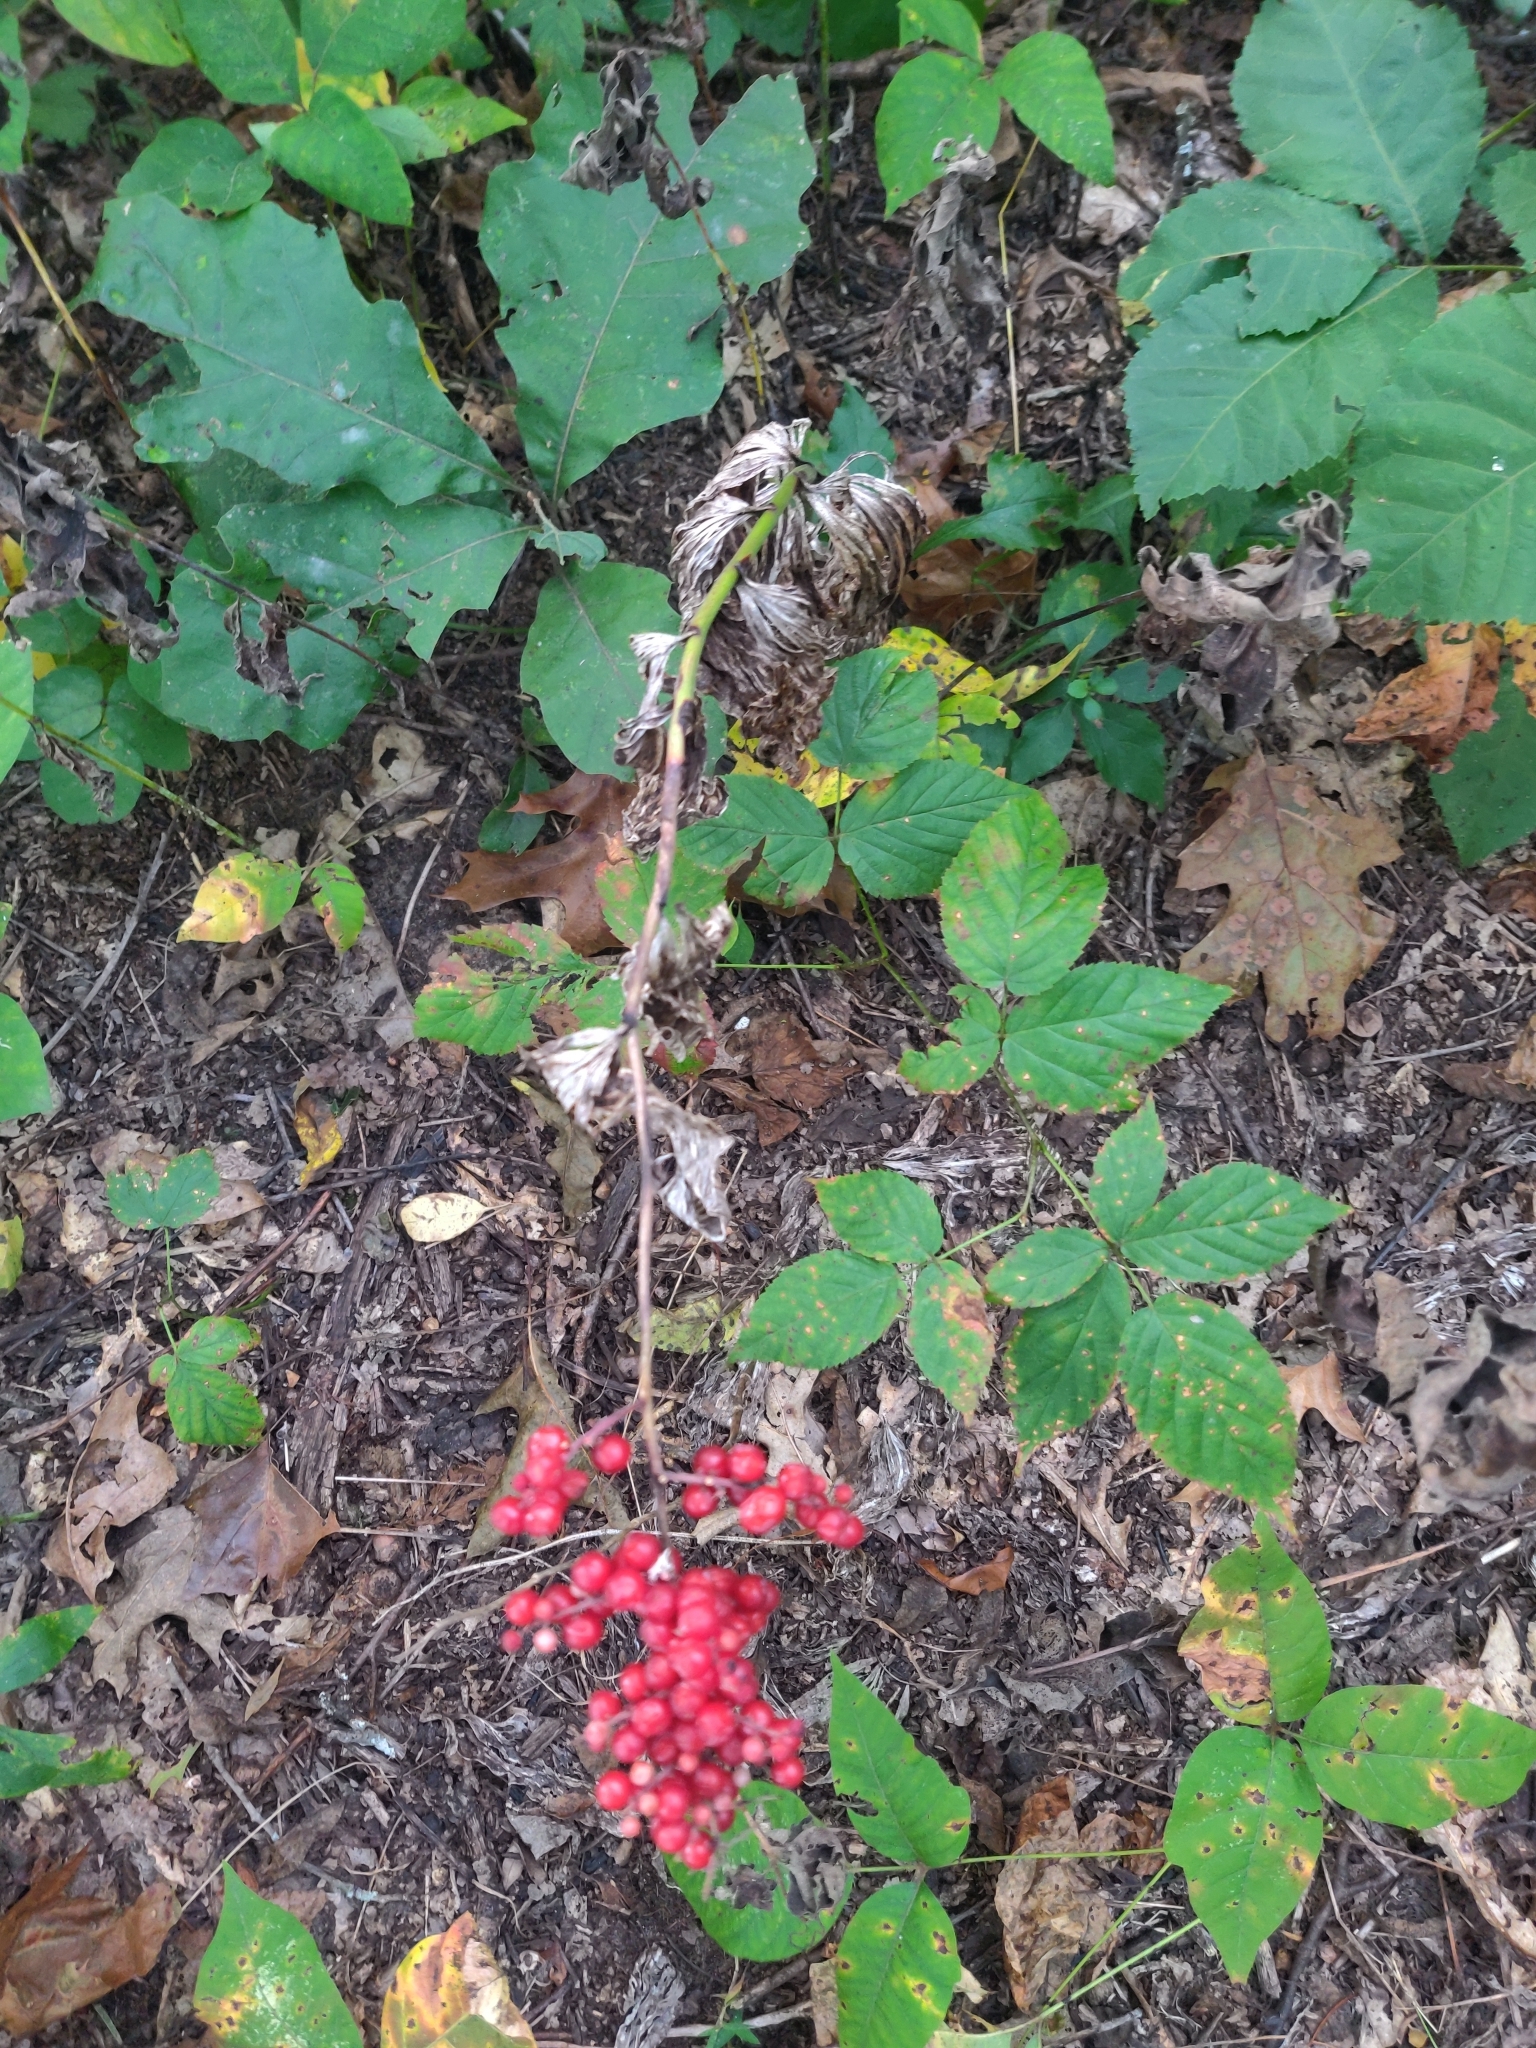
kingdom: Plantae
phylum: Tracheophyta
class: Liliopsida
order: Asparagales
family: Asparagaceae
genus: Maianthemum
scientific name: Maianthemum racemosum
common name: False spikenard
